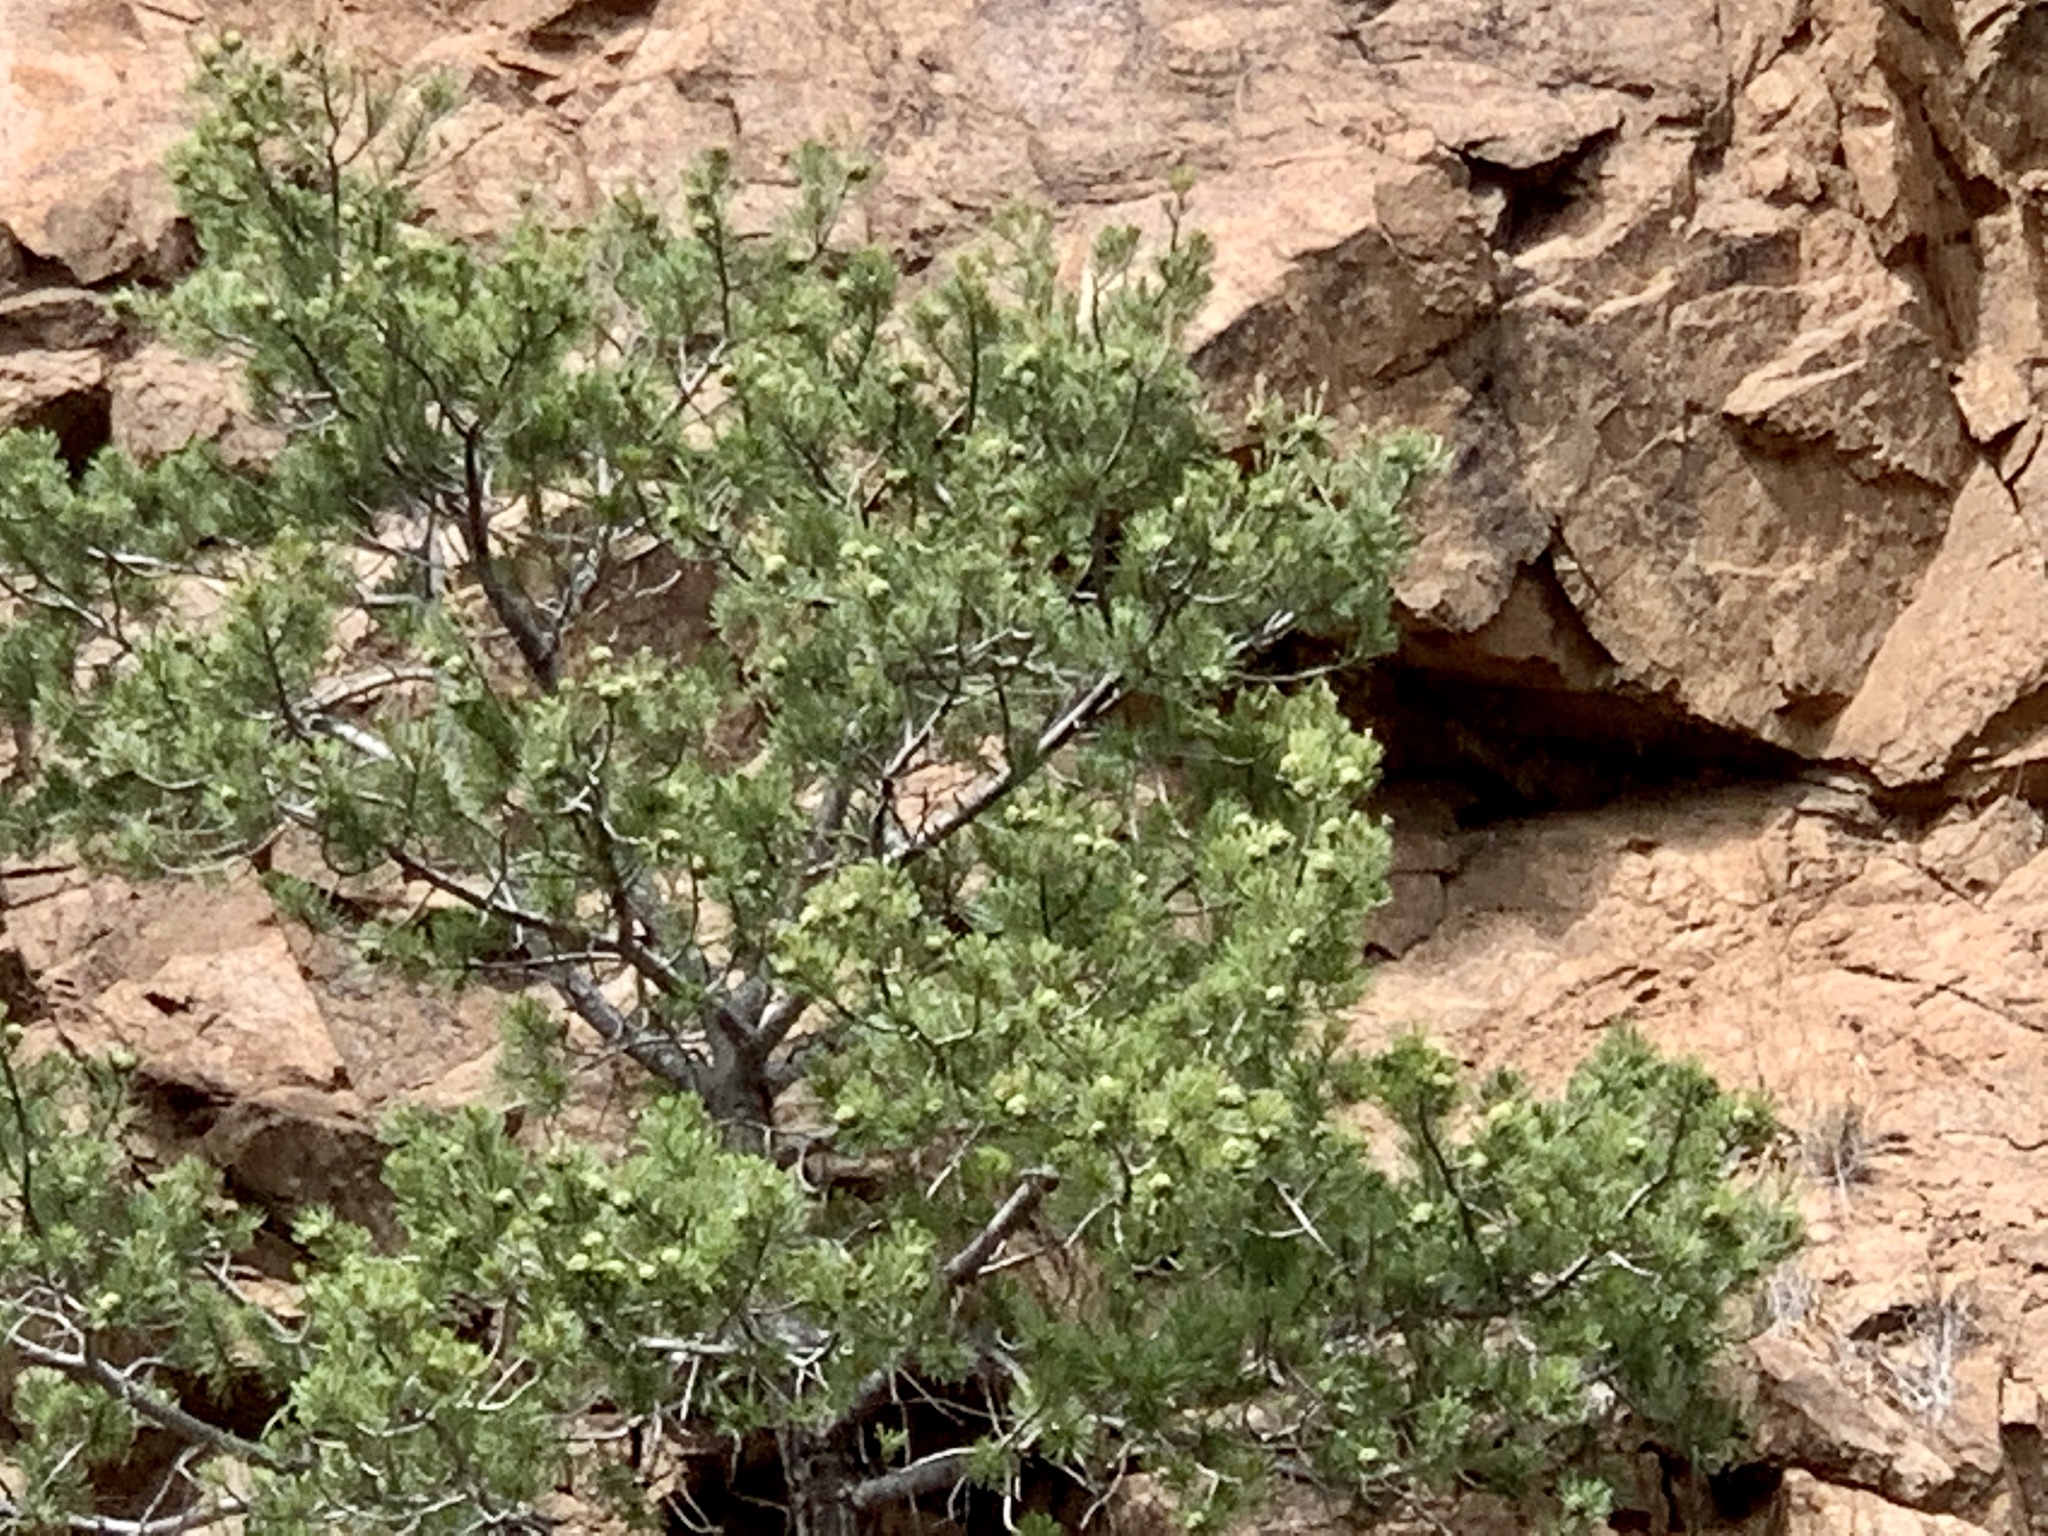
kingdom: Plantae
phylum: Tracheophyta
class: Pinopsida
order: Pinales
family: Pinaceae
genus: Pinus
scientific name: Pinus cembroides
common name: Mexican nut pine
